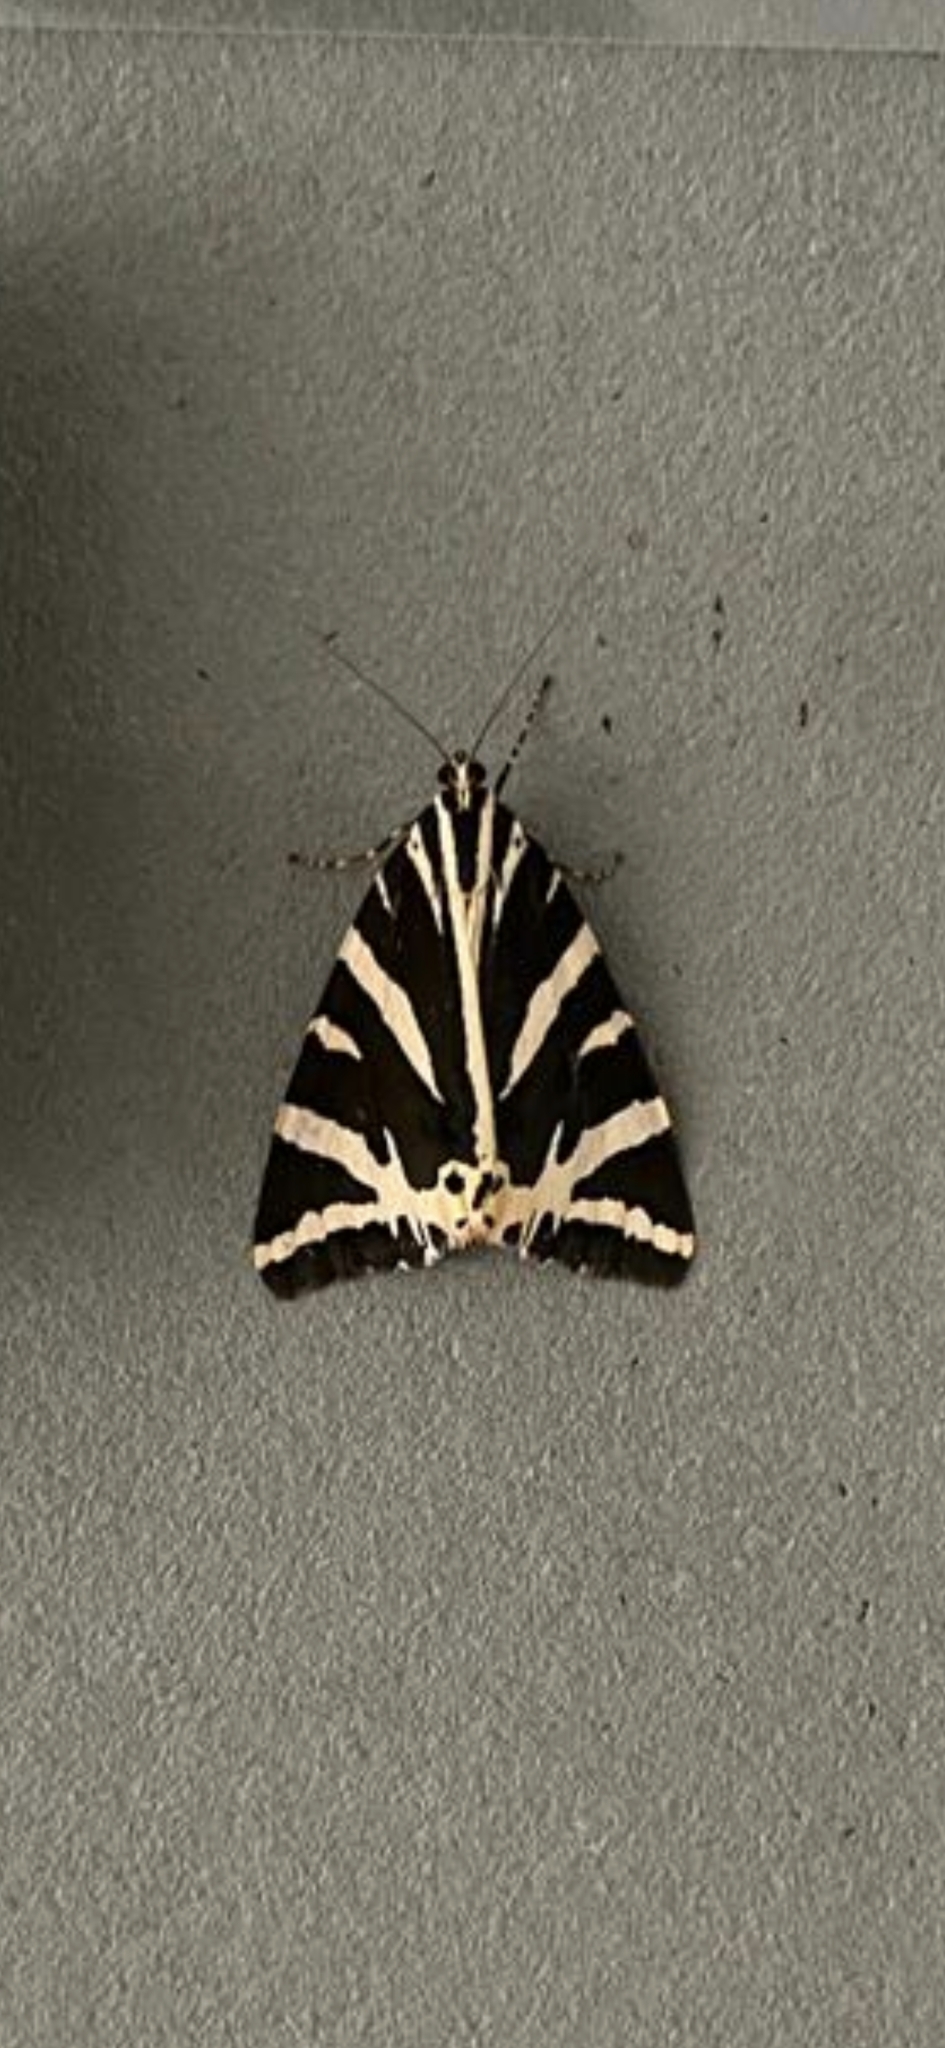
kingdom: Animalia
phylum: Arthropoda
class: Insecta
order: Lepidoptera
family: Erebidae
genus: Euplagia
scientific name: Euplagia quadripunctaria
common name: Jersey tiger
